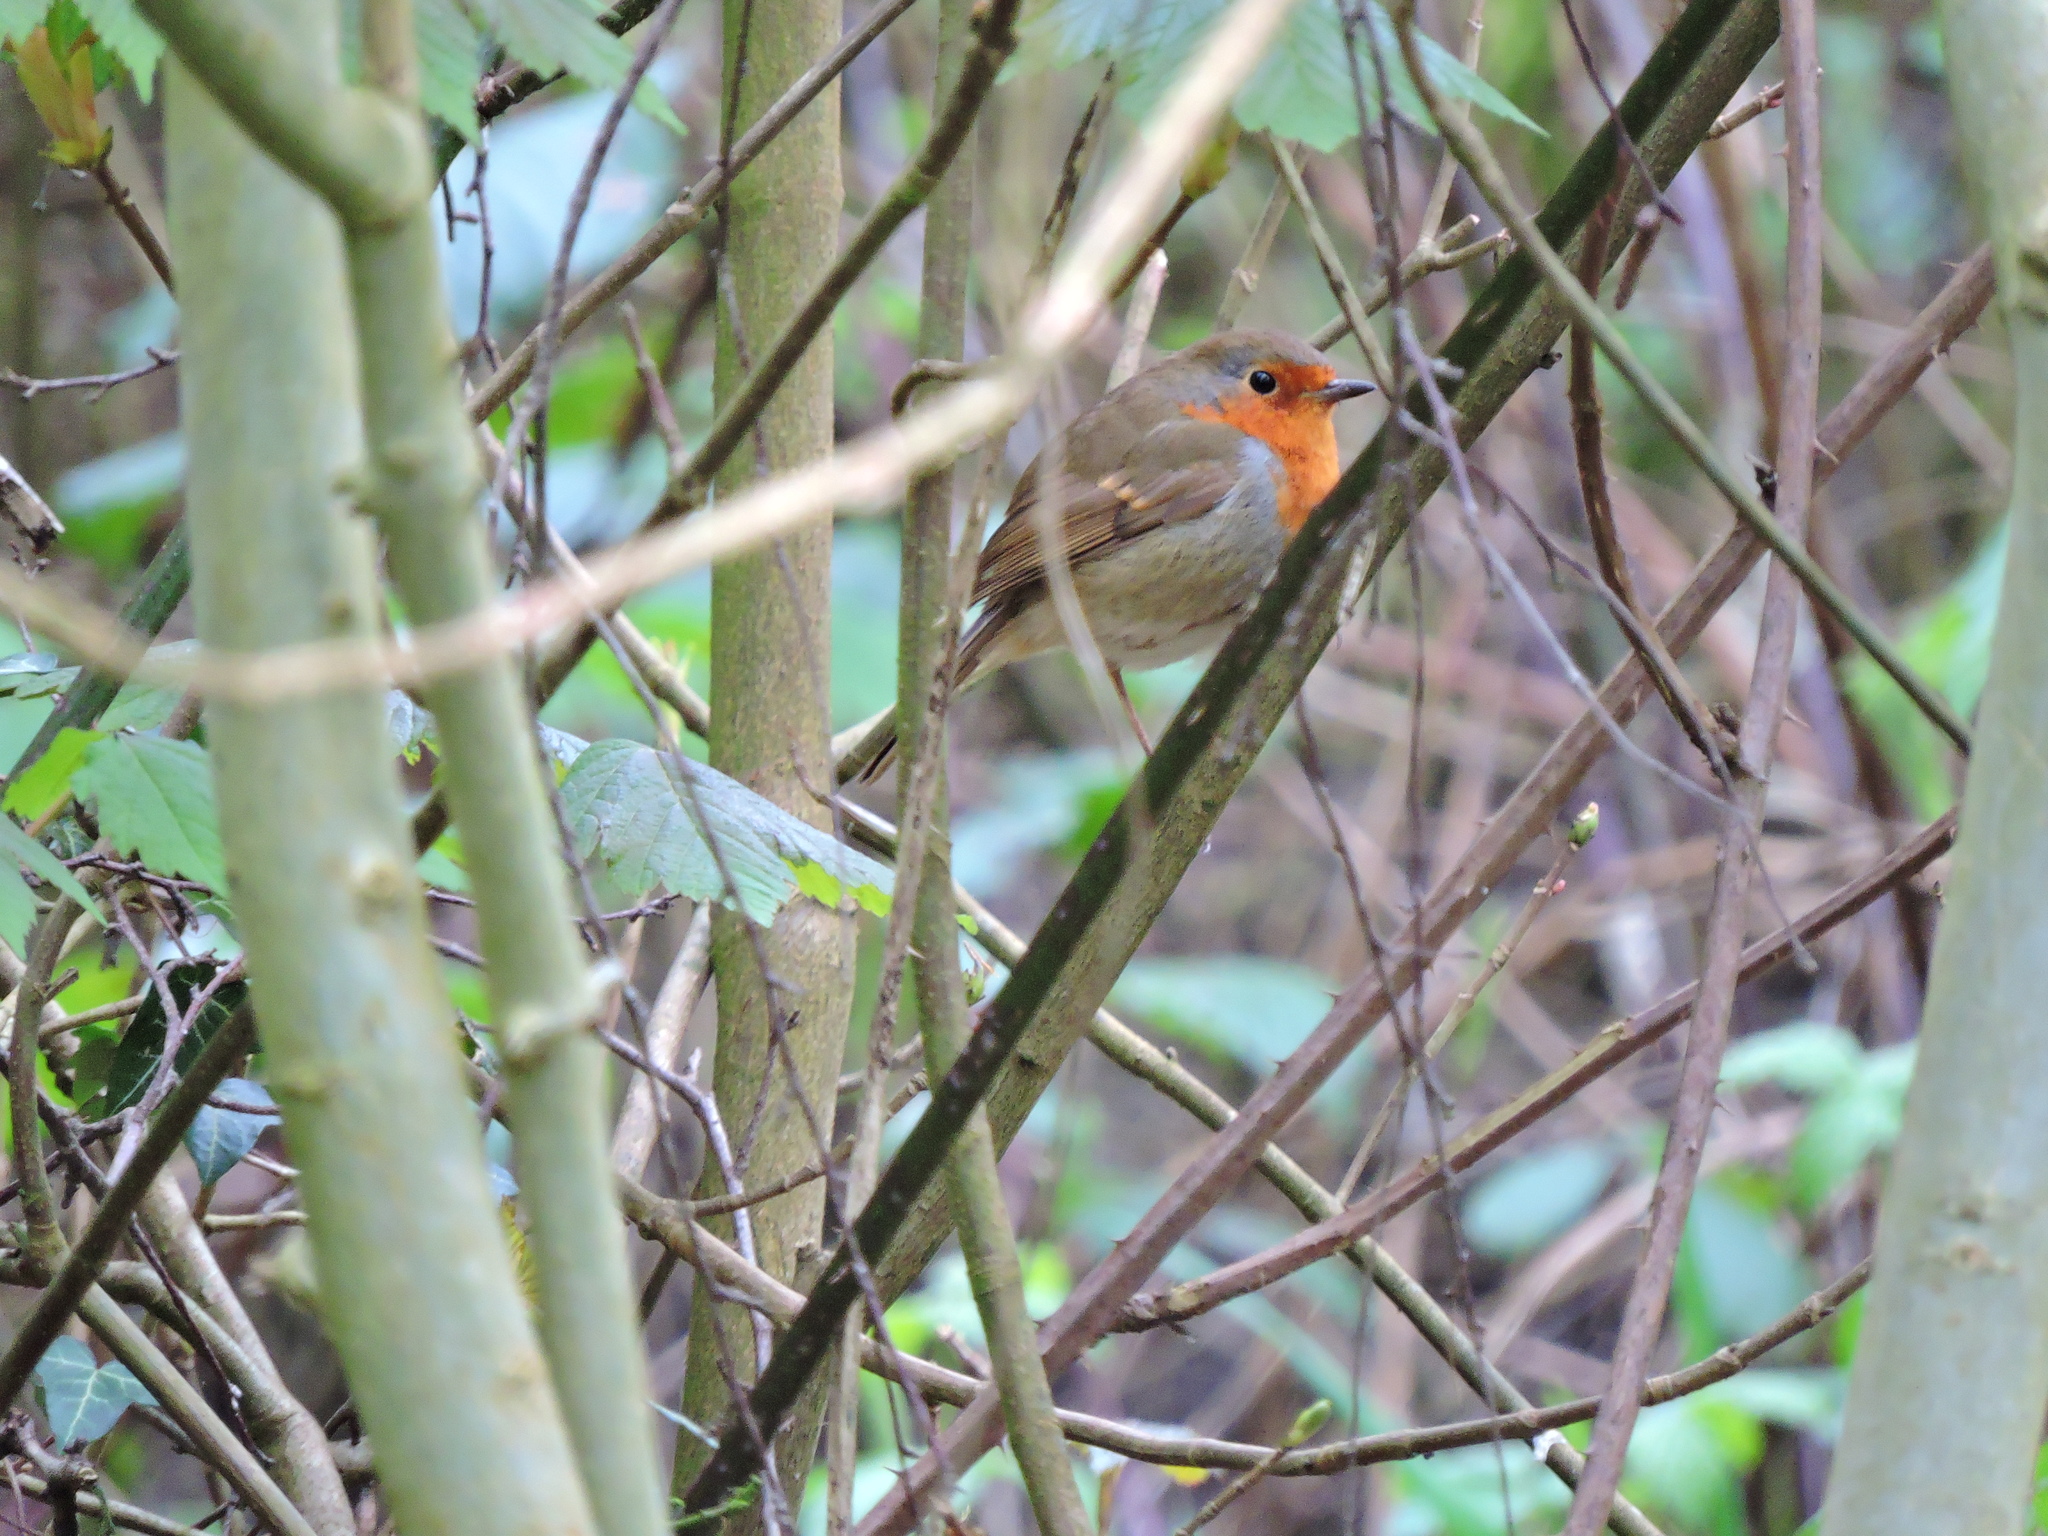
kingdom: Animalia
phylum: Chordata
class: Aves
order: Passeriformes
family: Muscicapidae
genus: Erithacus
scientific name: Erithacus rubecula
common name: European robin
